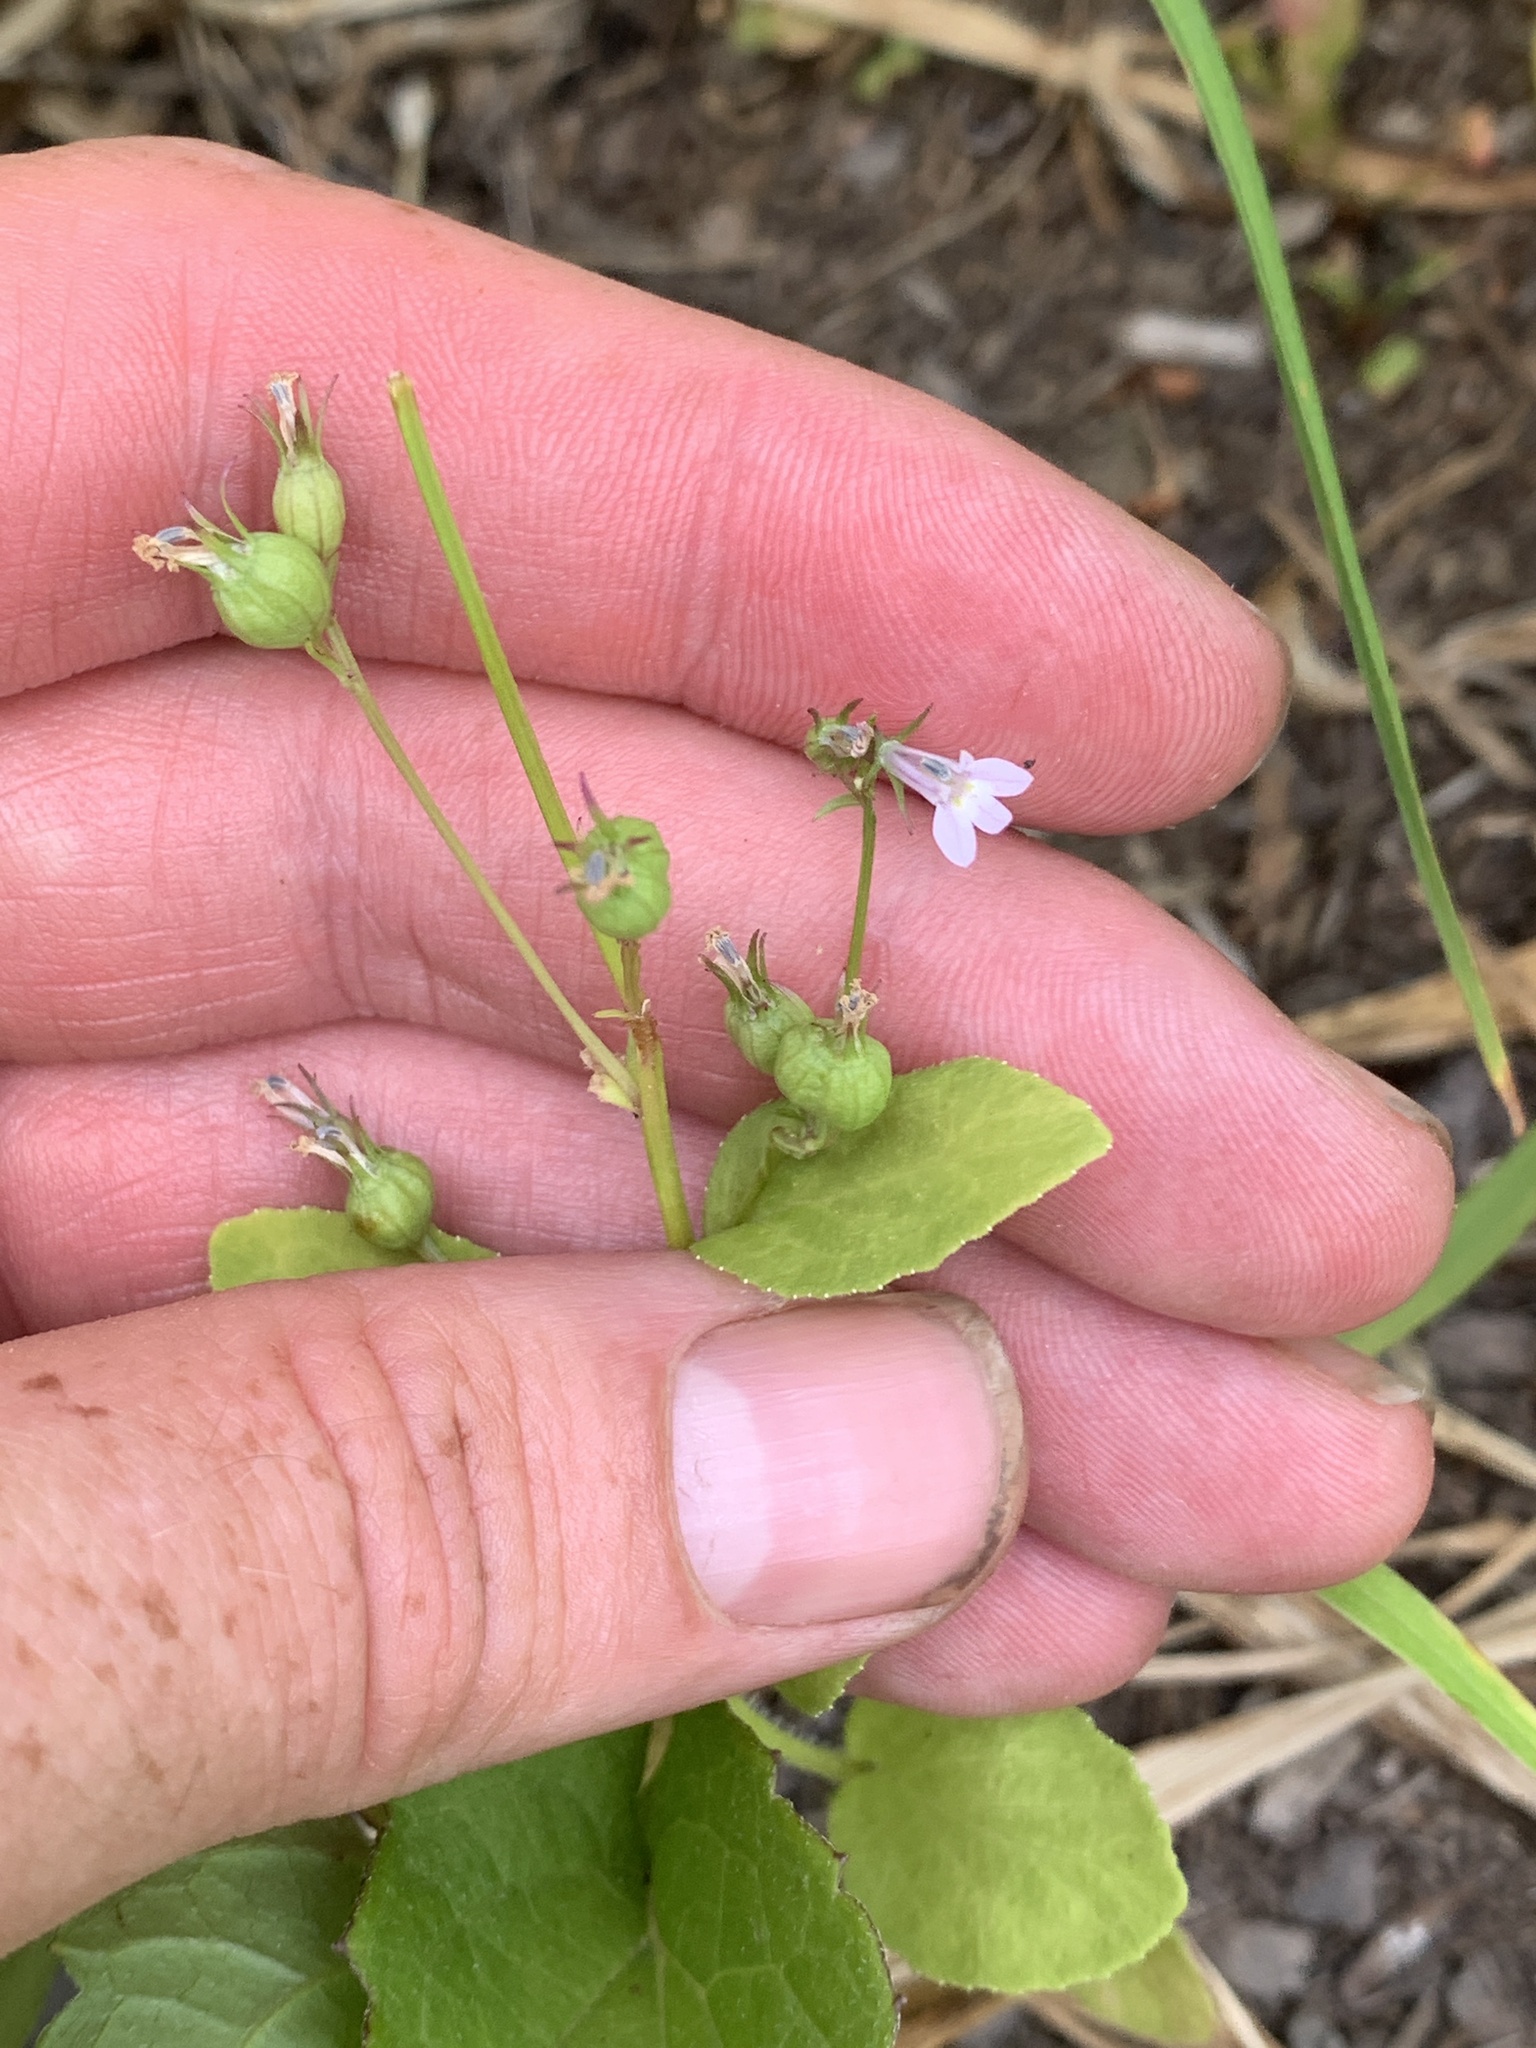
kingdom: Plantae
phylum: Tracheophyta
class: Magnoliopsida
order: Asterales
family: Campanulaceae
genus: Lobelia
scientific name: Lobelia inflata
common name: Indian tobacco
